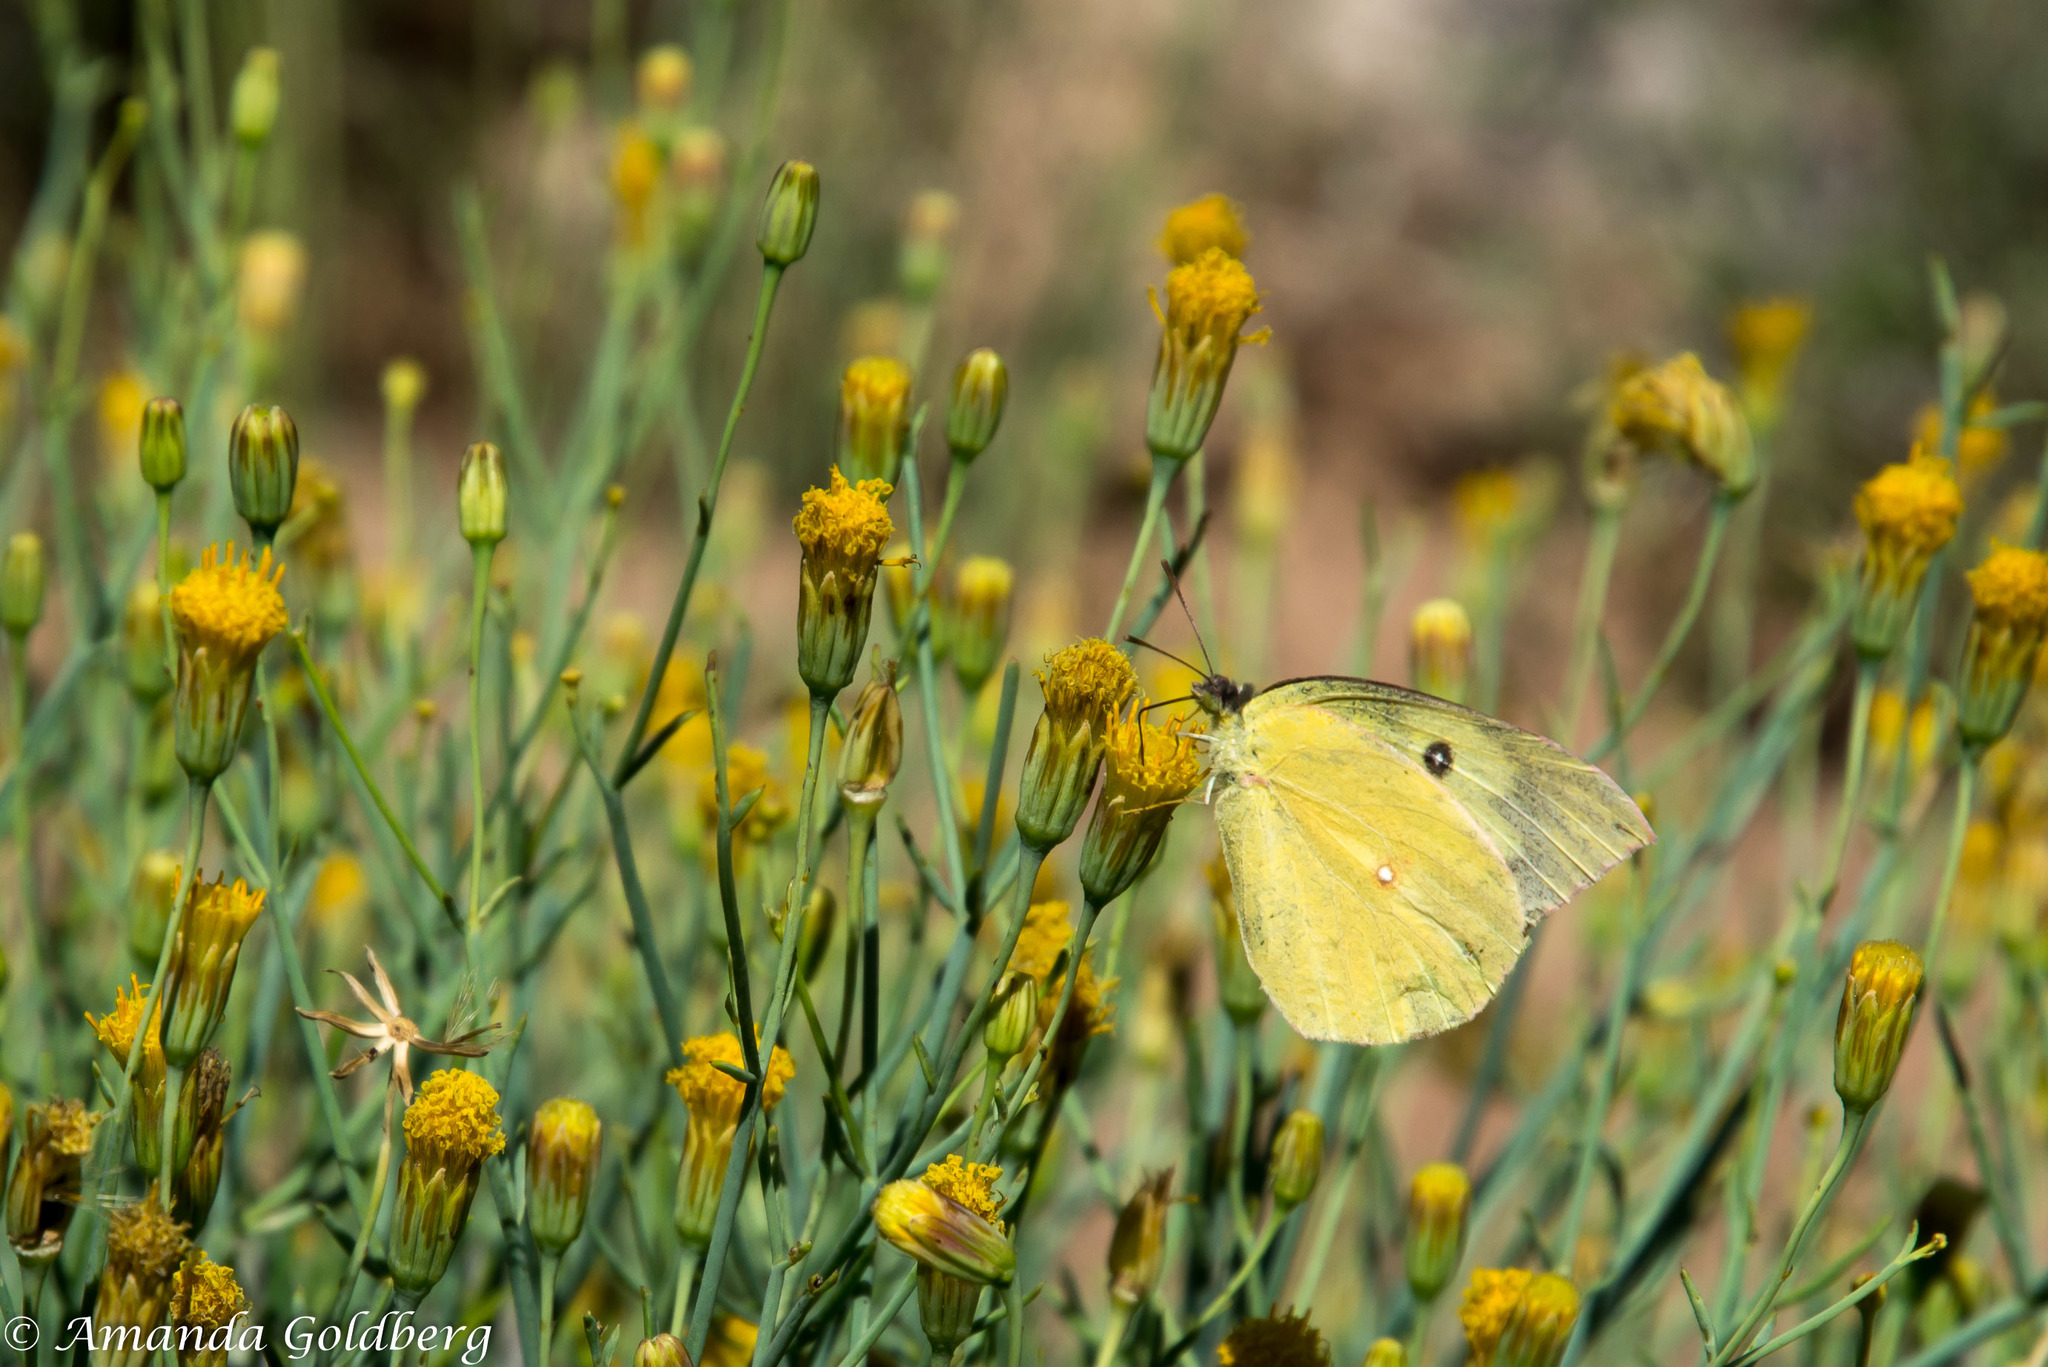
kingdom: Animalia
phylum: Arthropoda
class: Insecta
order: Lepidoptera
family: Pieridae
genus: Zerene
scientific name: Zerene cesonia
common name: Southern dogface
